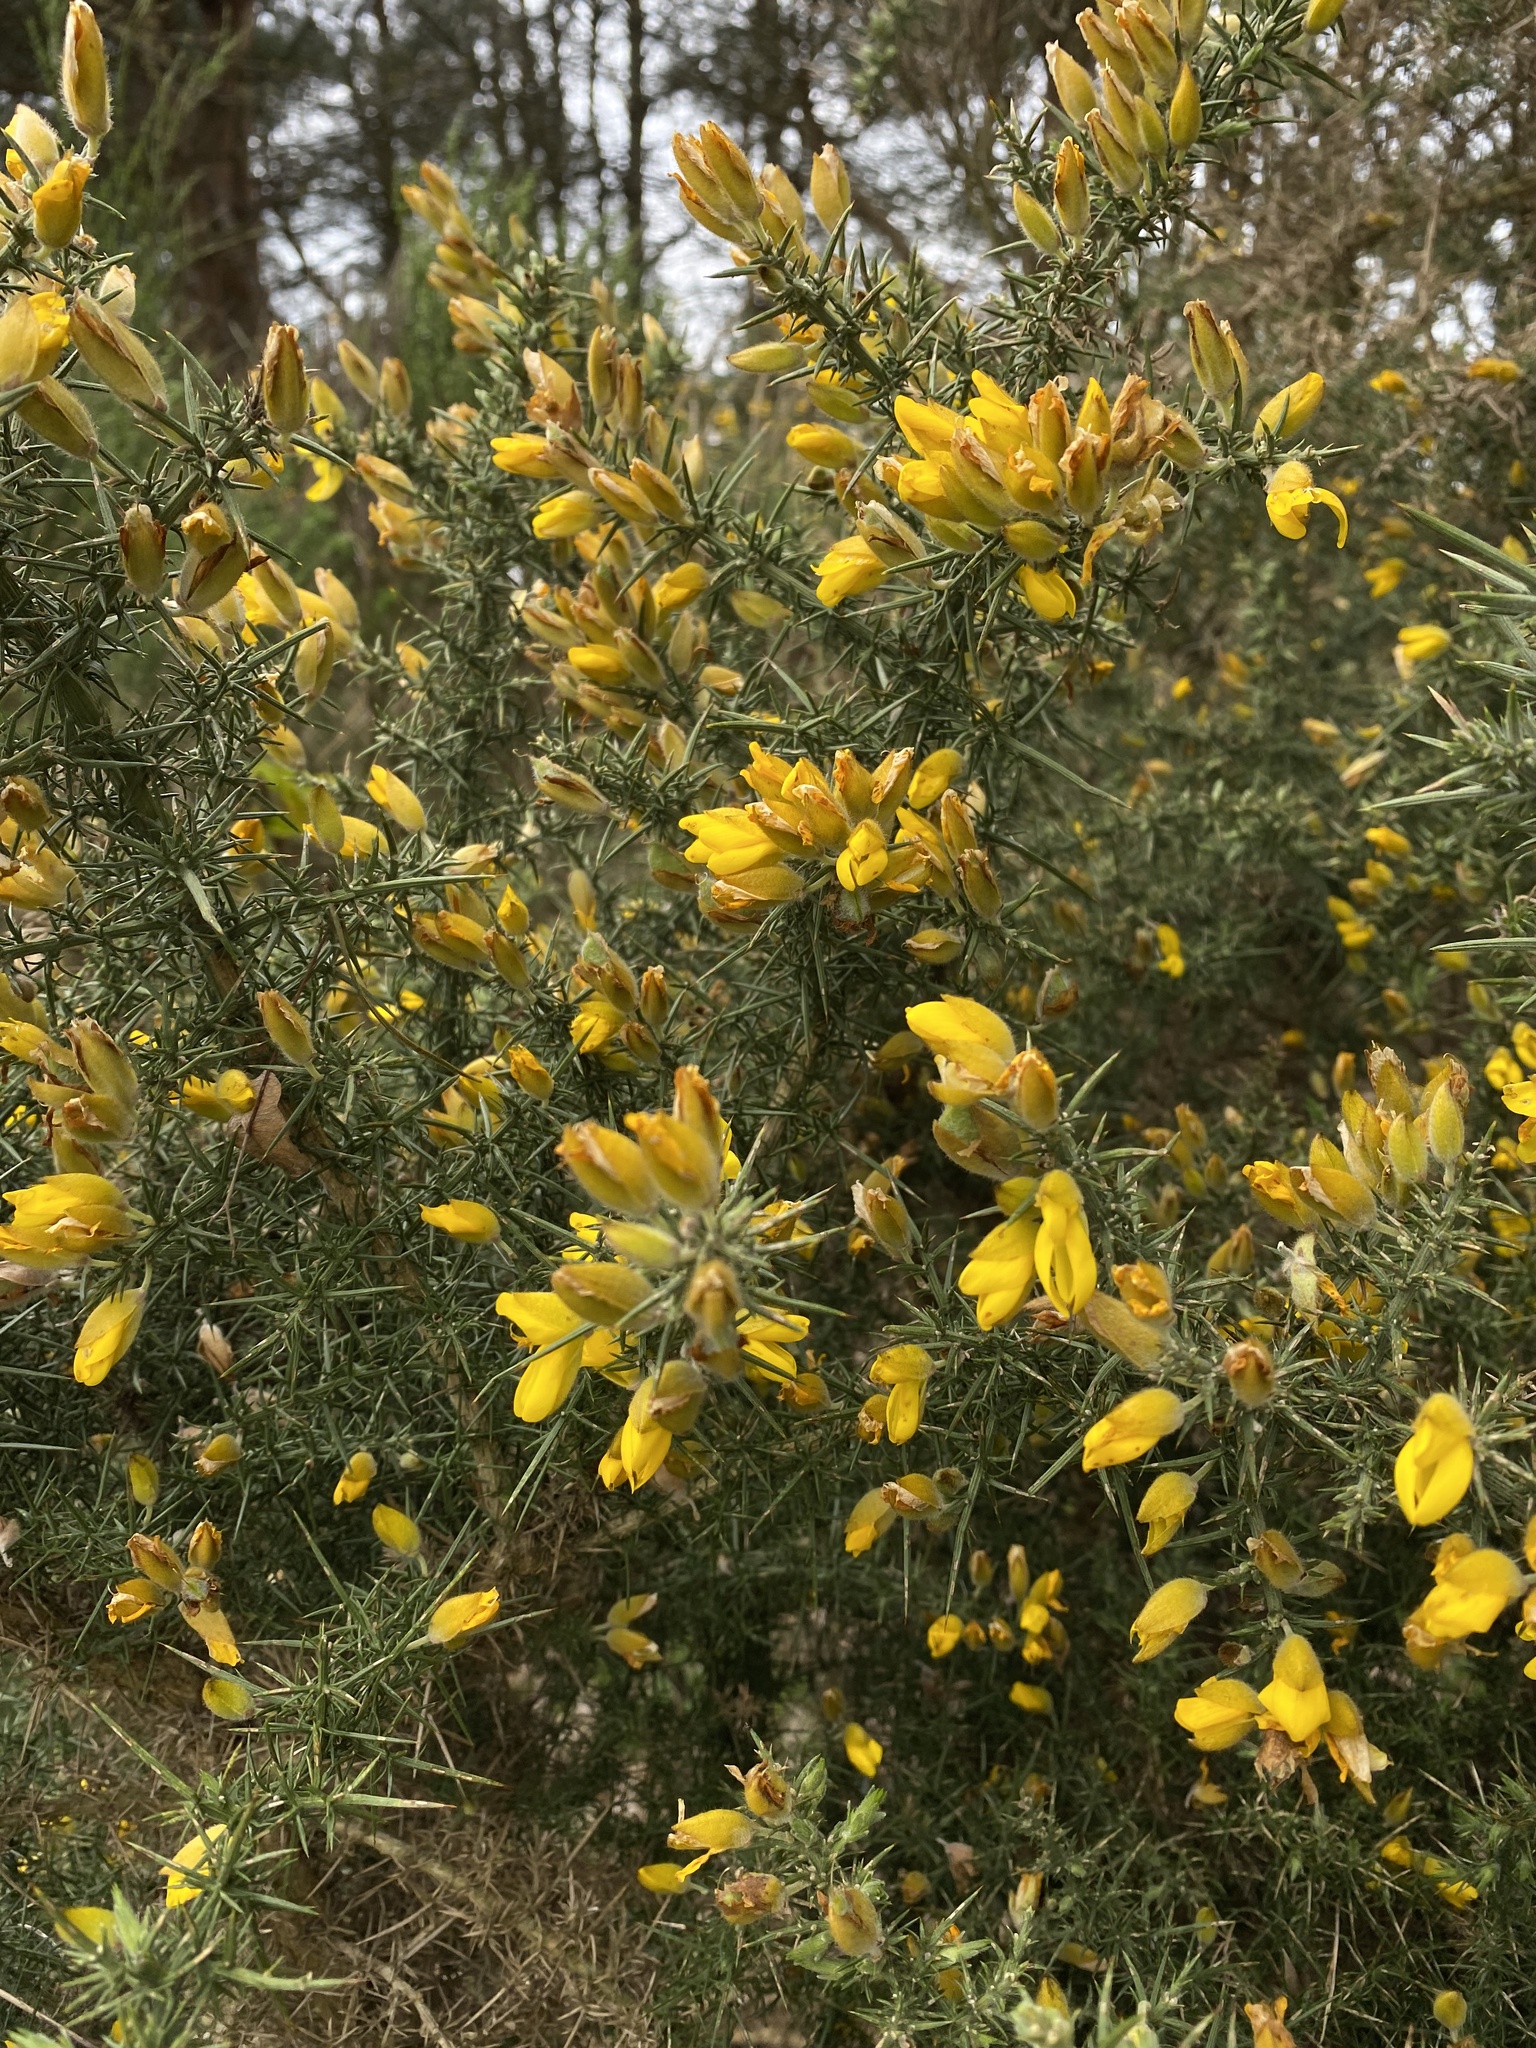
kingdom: Plantae
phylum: Tracheophyta
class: Magnoliopsida
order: Fabales
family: Fabaceae
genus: Ulex
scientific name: Ulex europaeus
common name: Common gorse
